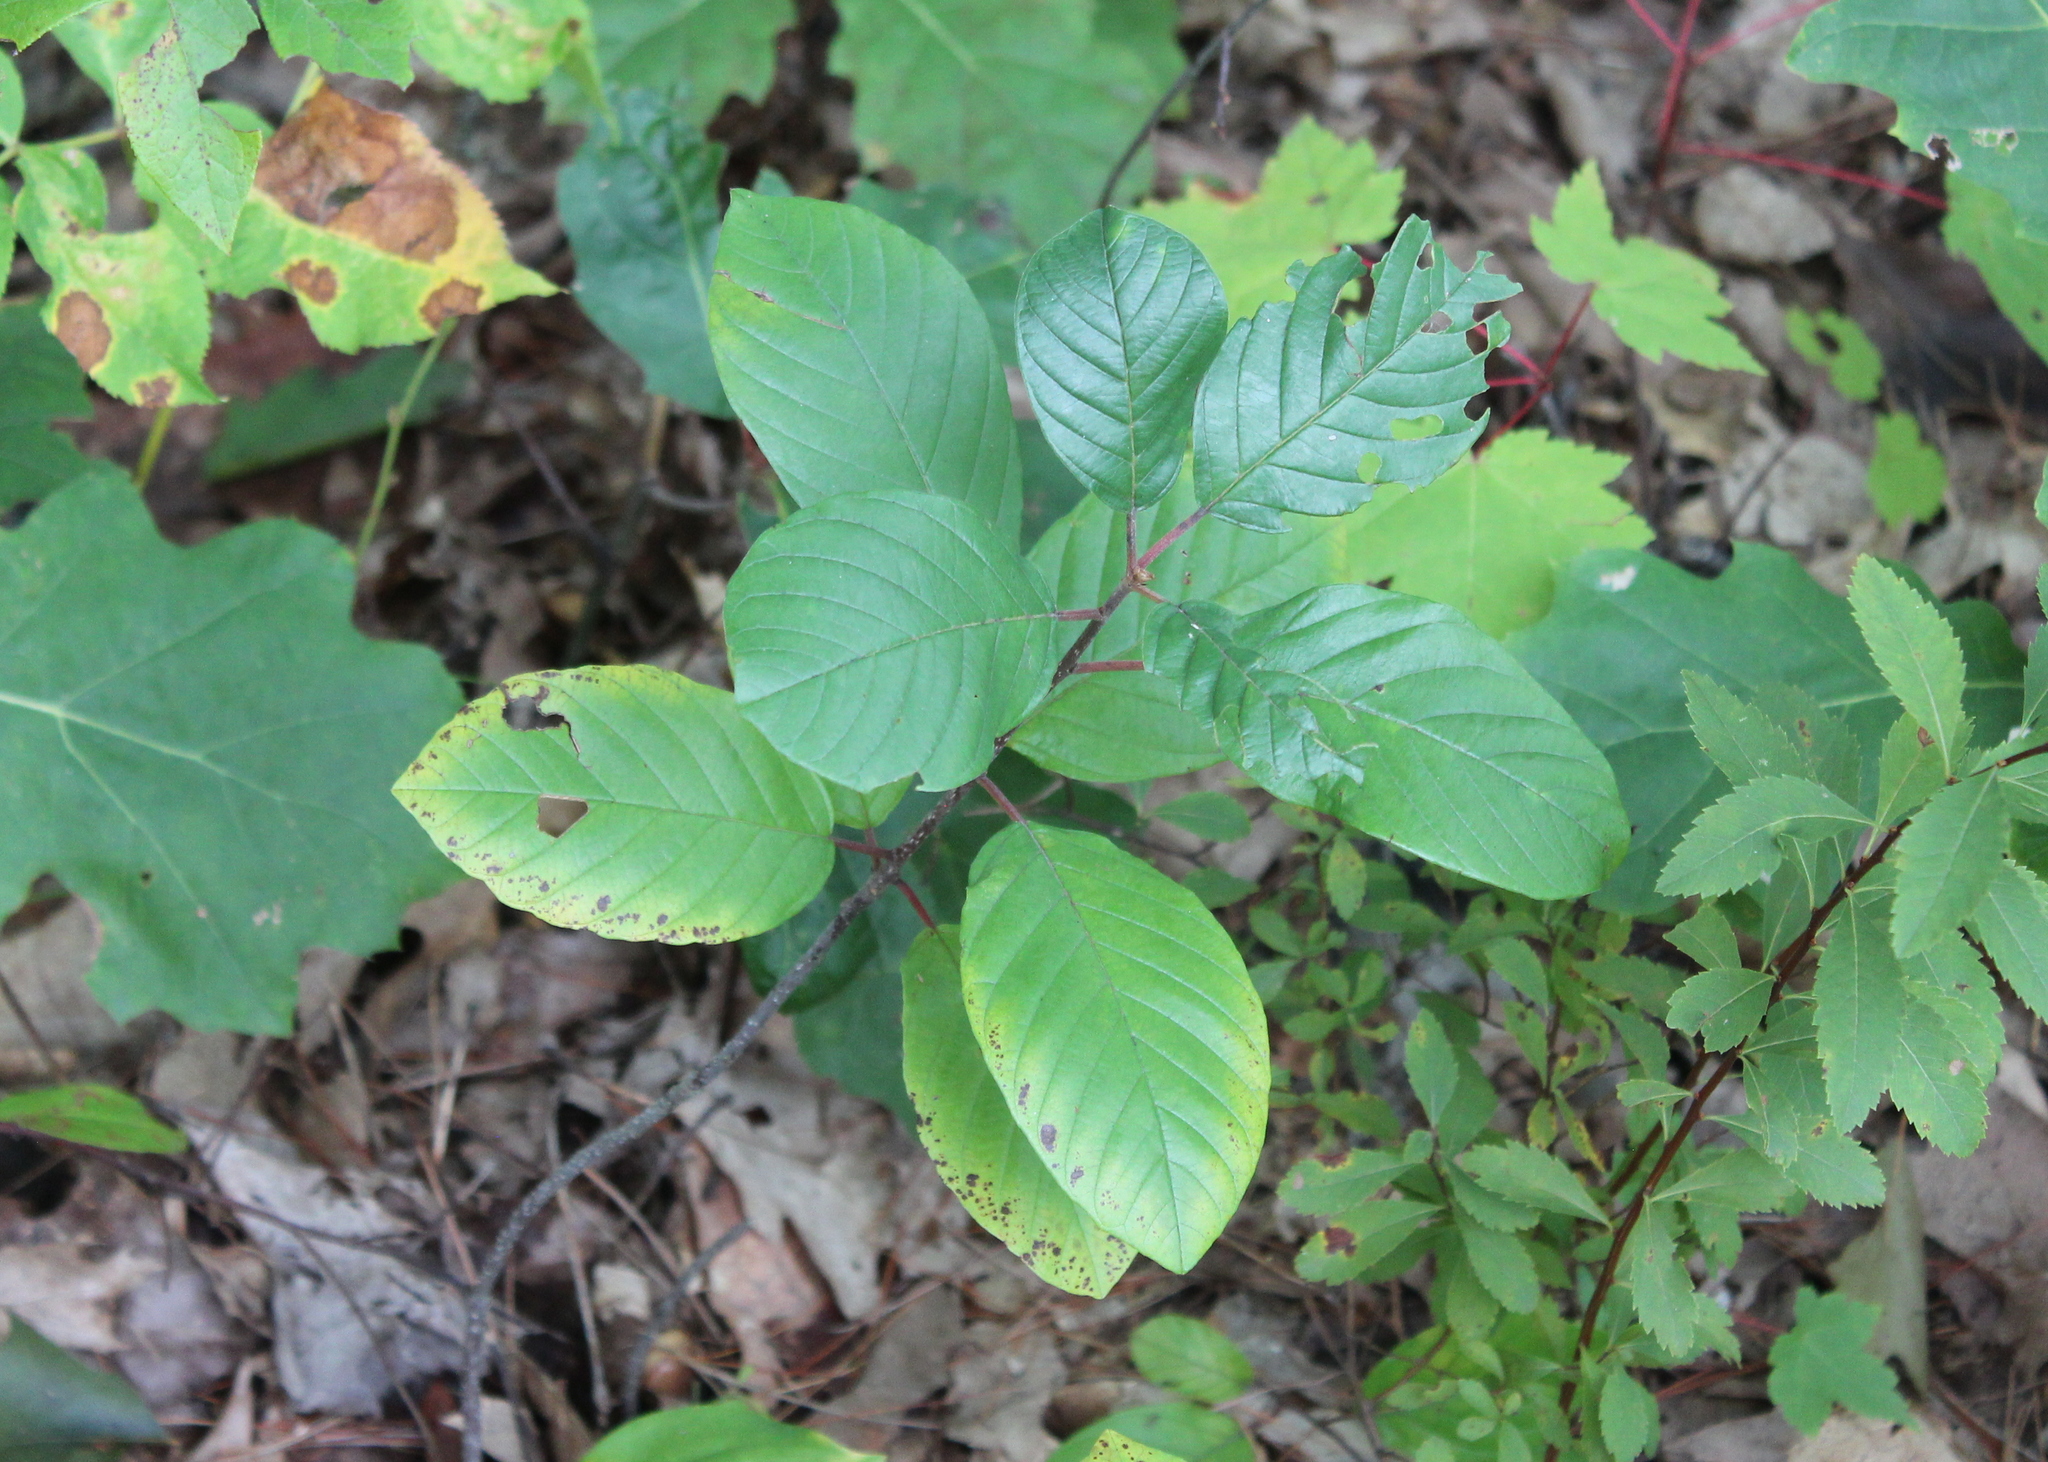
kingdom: Plantae
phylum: Tracheophyta
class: Magnoliopsida
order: Rosales
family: Rhamnaceae
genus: Frangula
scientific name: Frangula alnus
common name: Alder buckthorn
